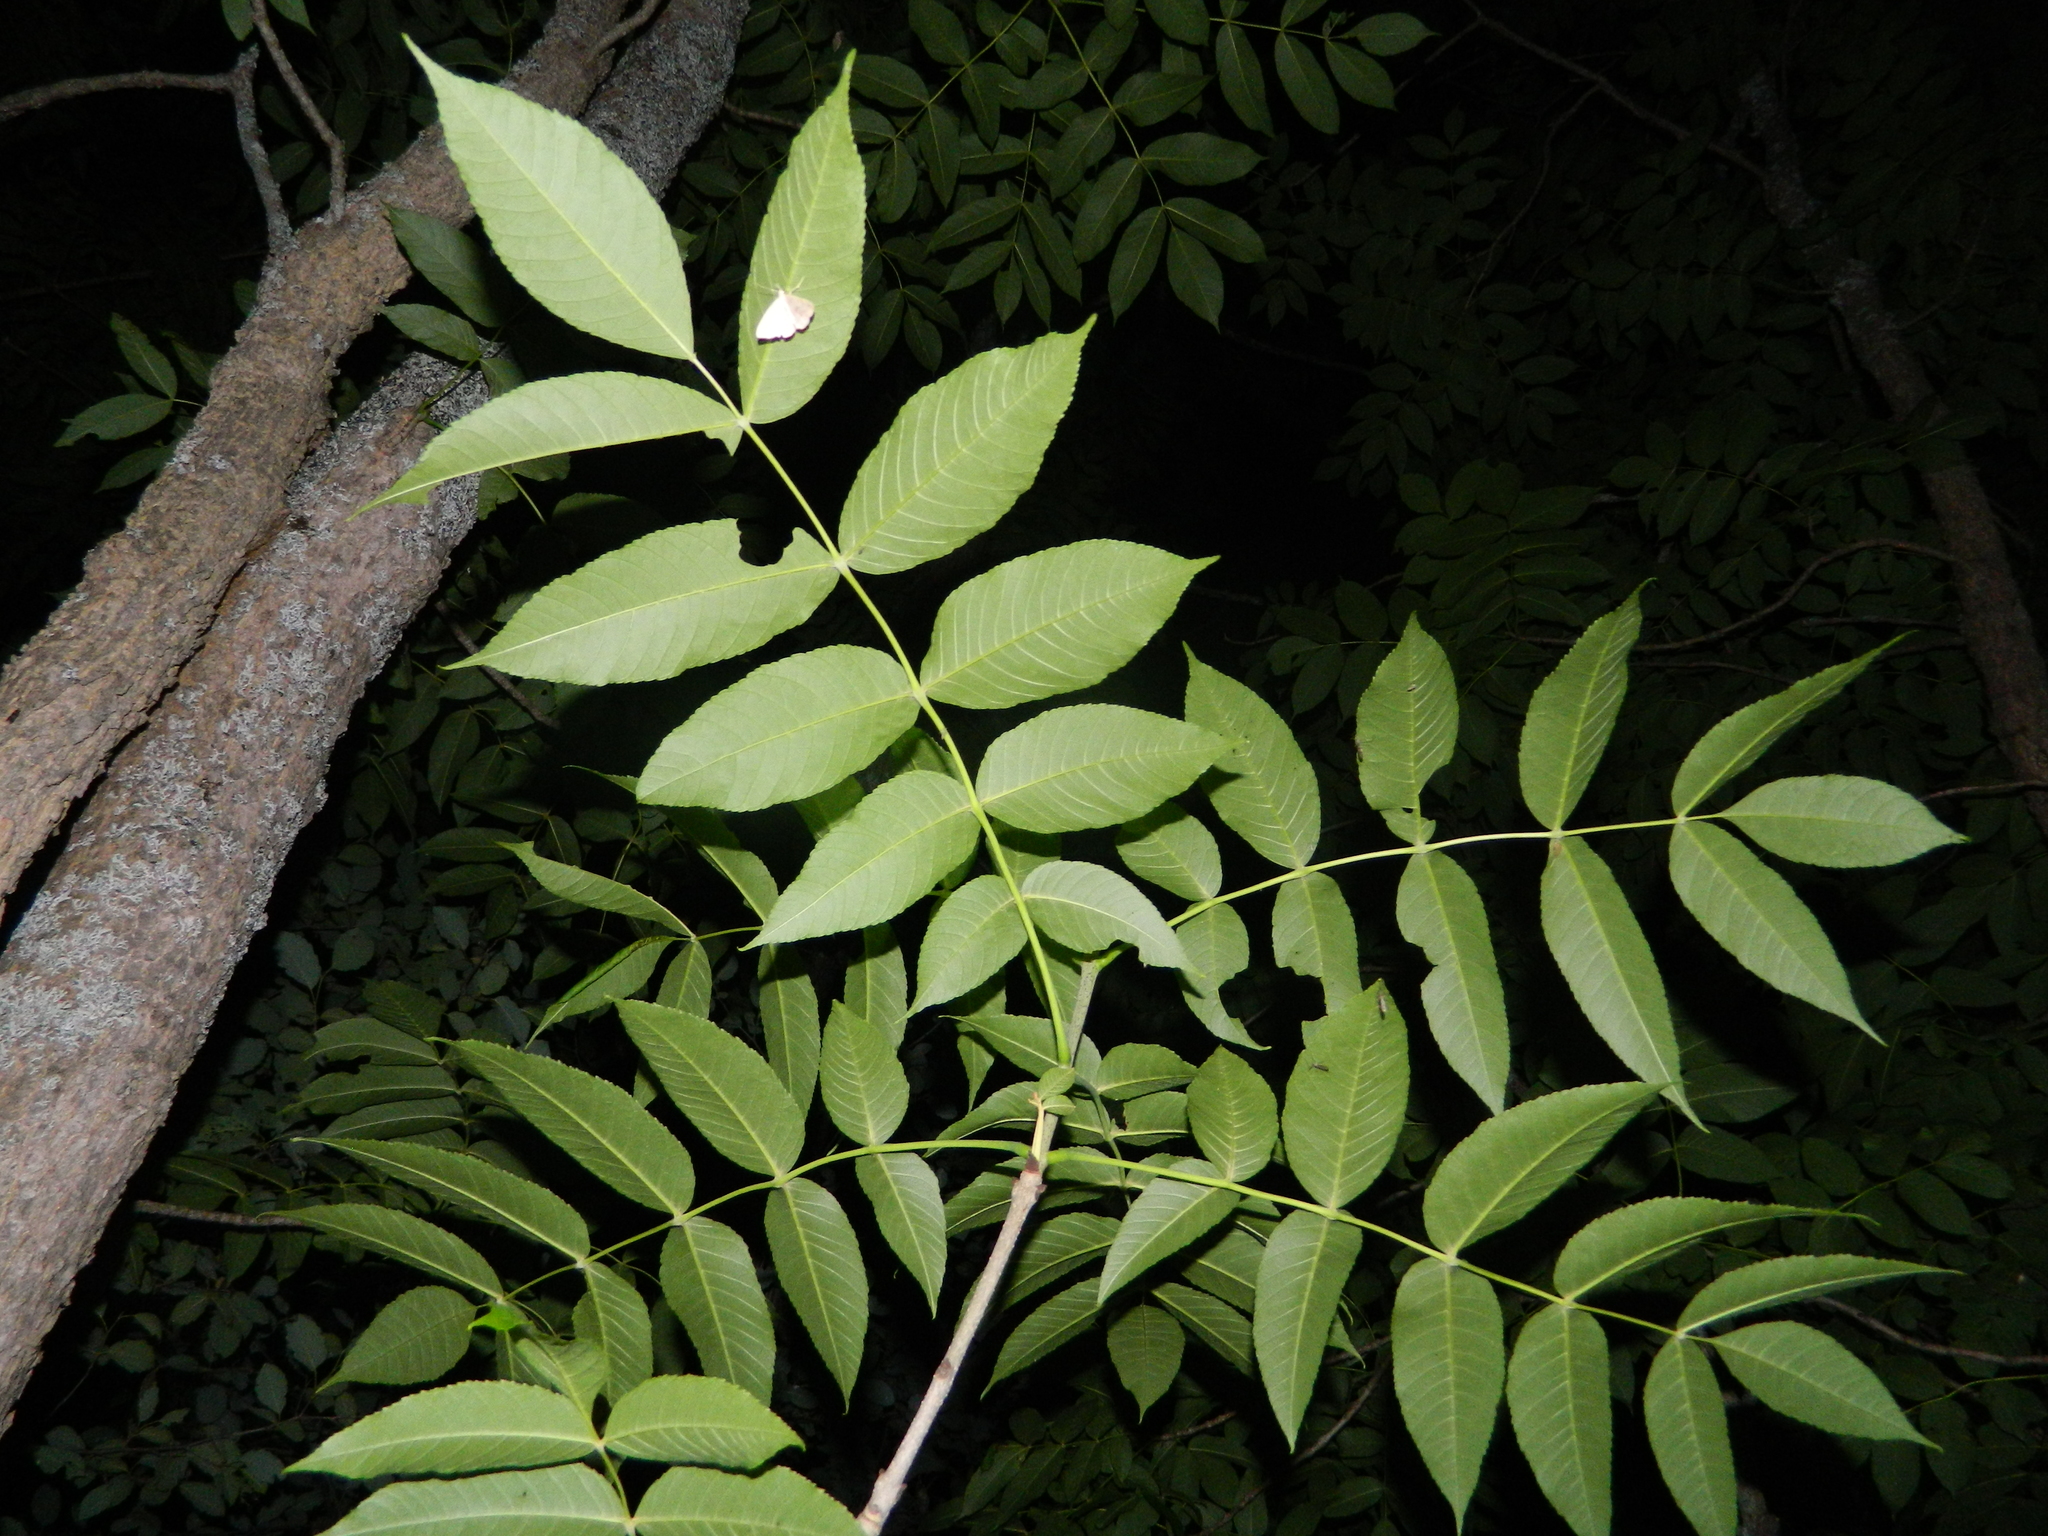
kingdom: Plantae
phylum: Tracheophyta
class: Magnoliopsida
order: Lamiales
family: Oleaceae
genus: Fraxinus
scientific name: Fraxinus nigra
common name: Black ash
